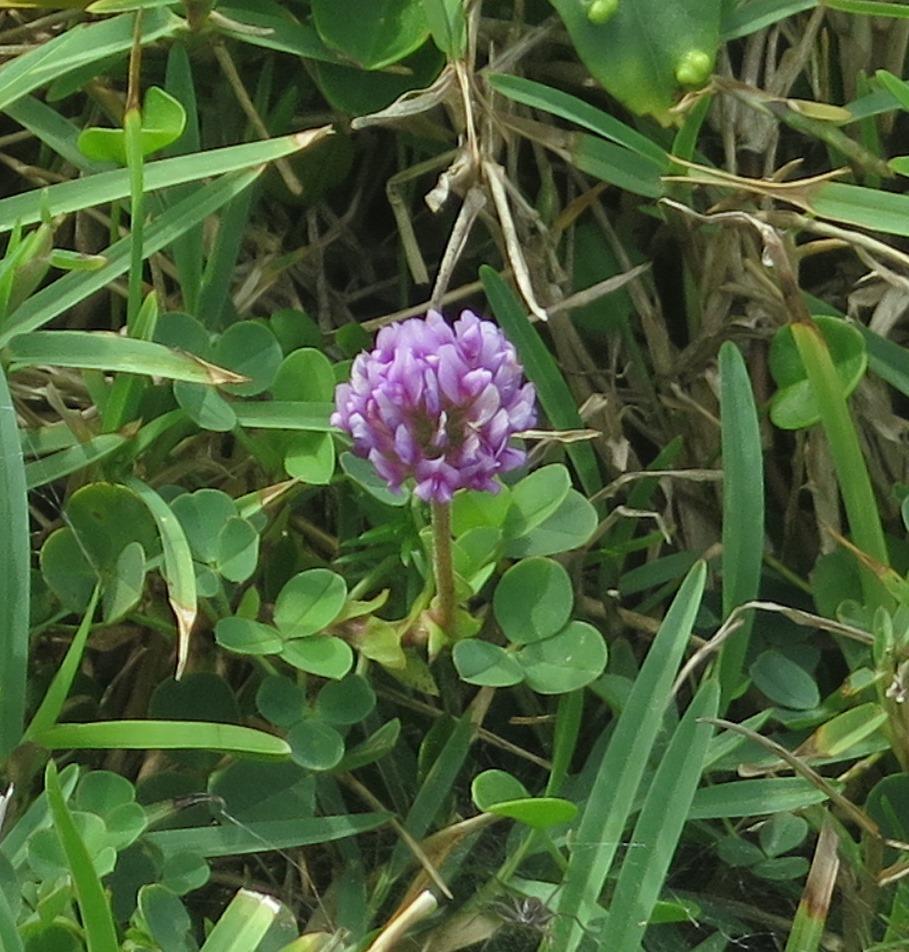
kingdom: Plantae
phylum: Tracheophyta
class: Magnoliopsida
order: Fabales
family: Fabaceae
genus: Trifolium
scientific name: Trifolium burchellianum
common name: Burchell's clover
